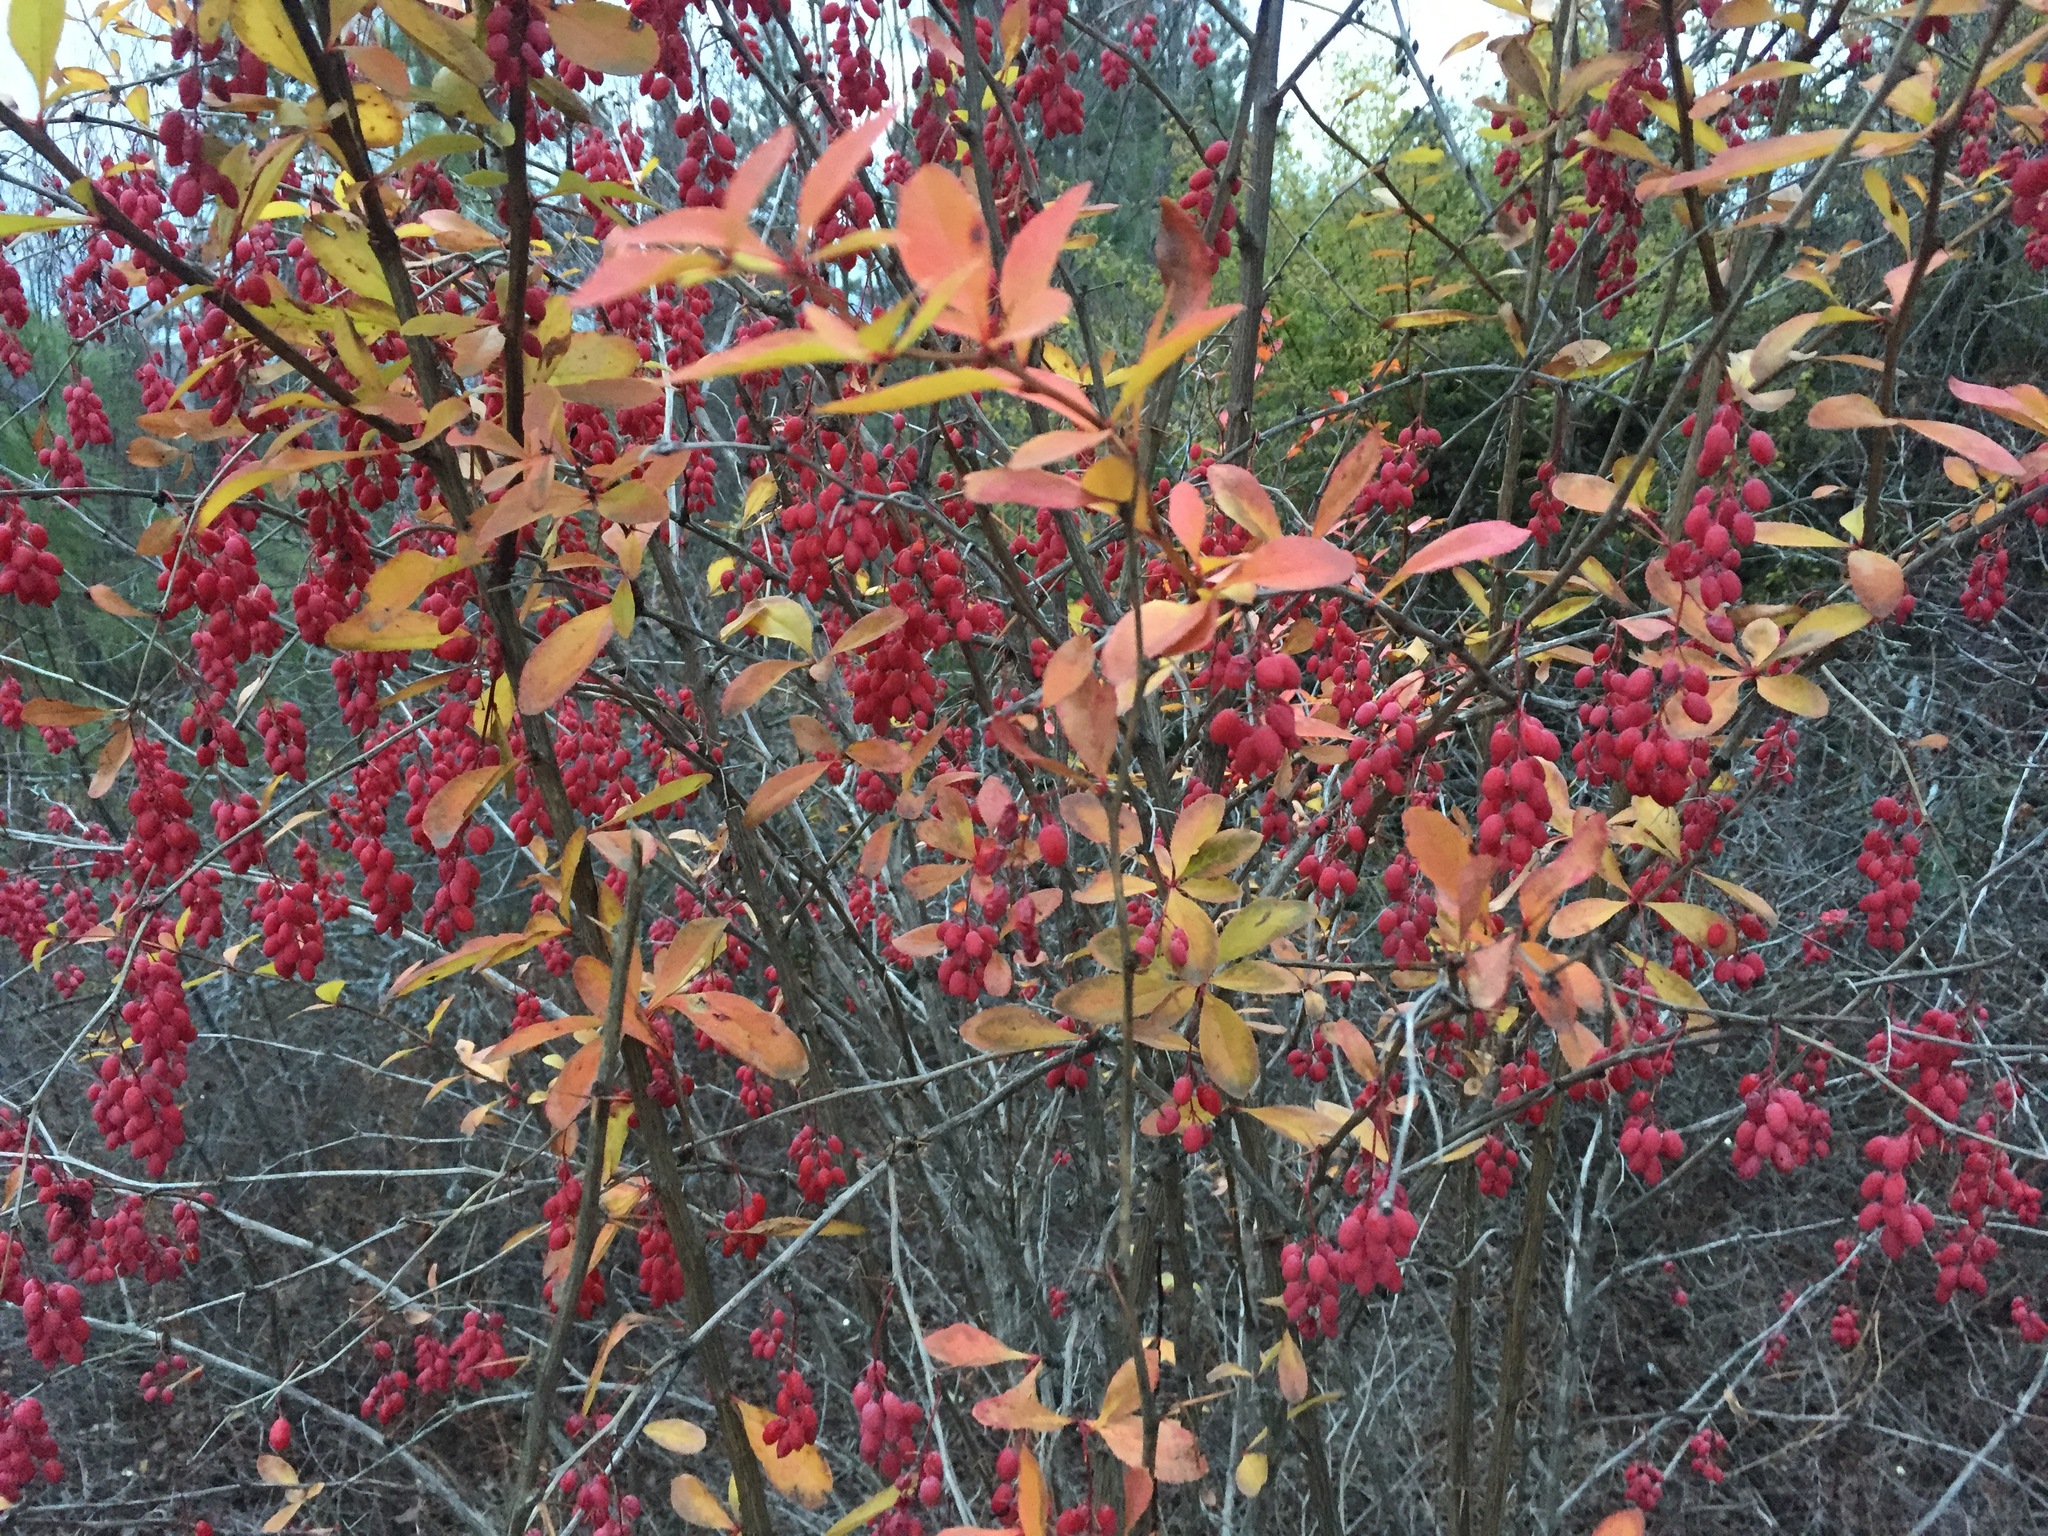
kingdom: Plantae
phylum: Tracheophyta
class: Magnoliopsida
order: Ranunculales
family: Berberidaceae
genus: Berberis
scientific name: Berberis vulgaris
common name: Barberry
